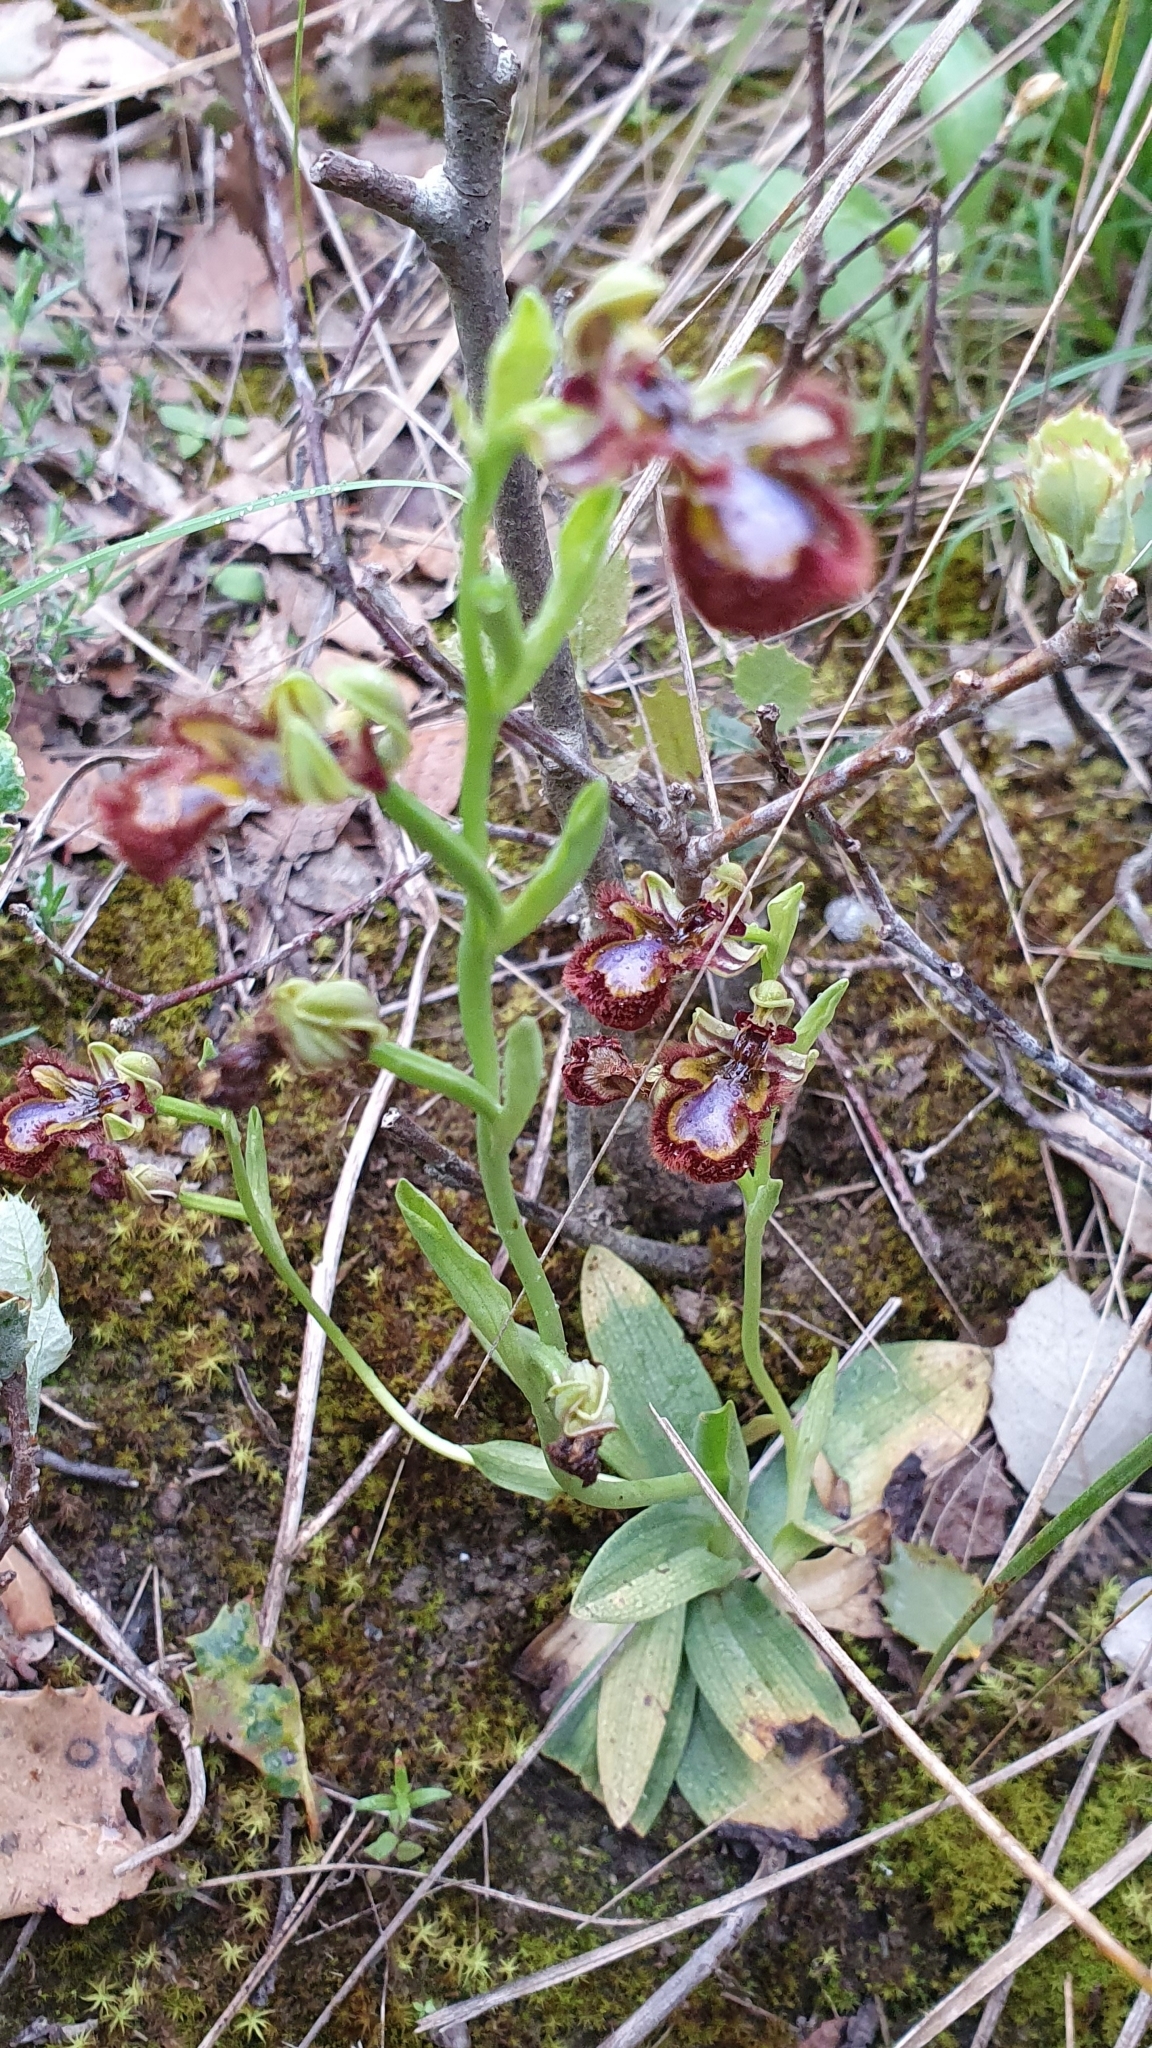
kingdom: Plantae
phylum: Tracheophyta
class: Liliopsida
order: Asparagales
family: Orchidaceae
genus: Ophrys
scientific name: Ophrys speculum
